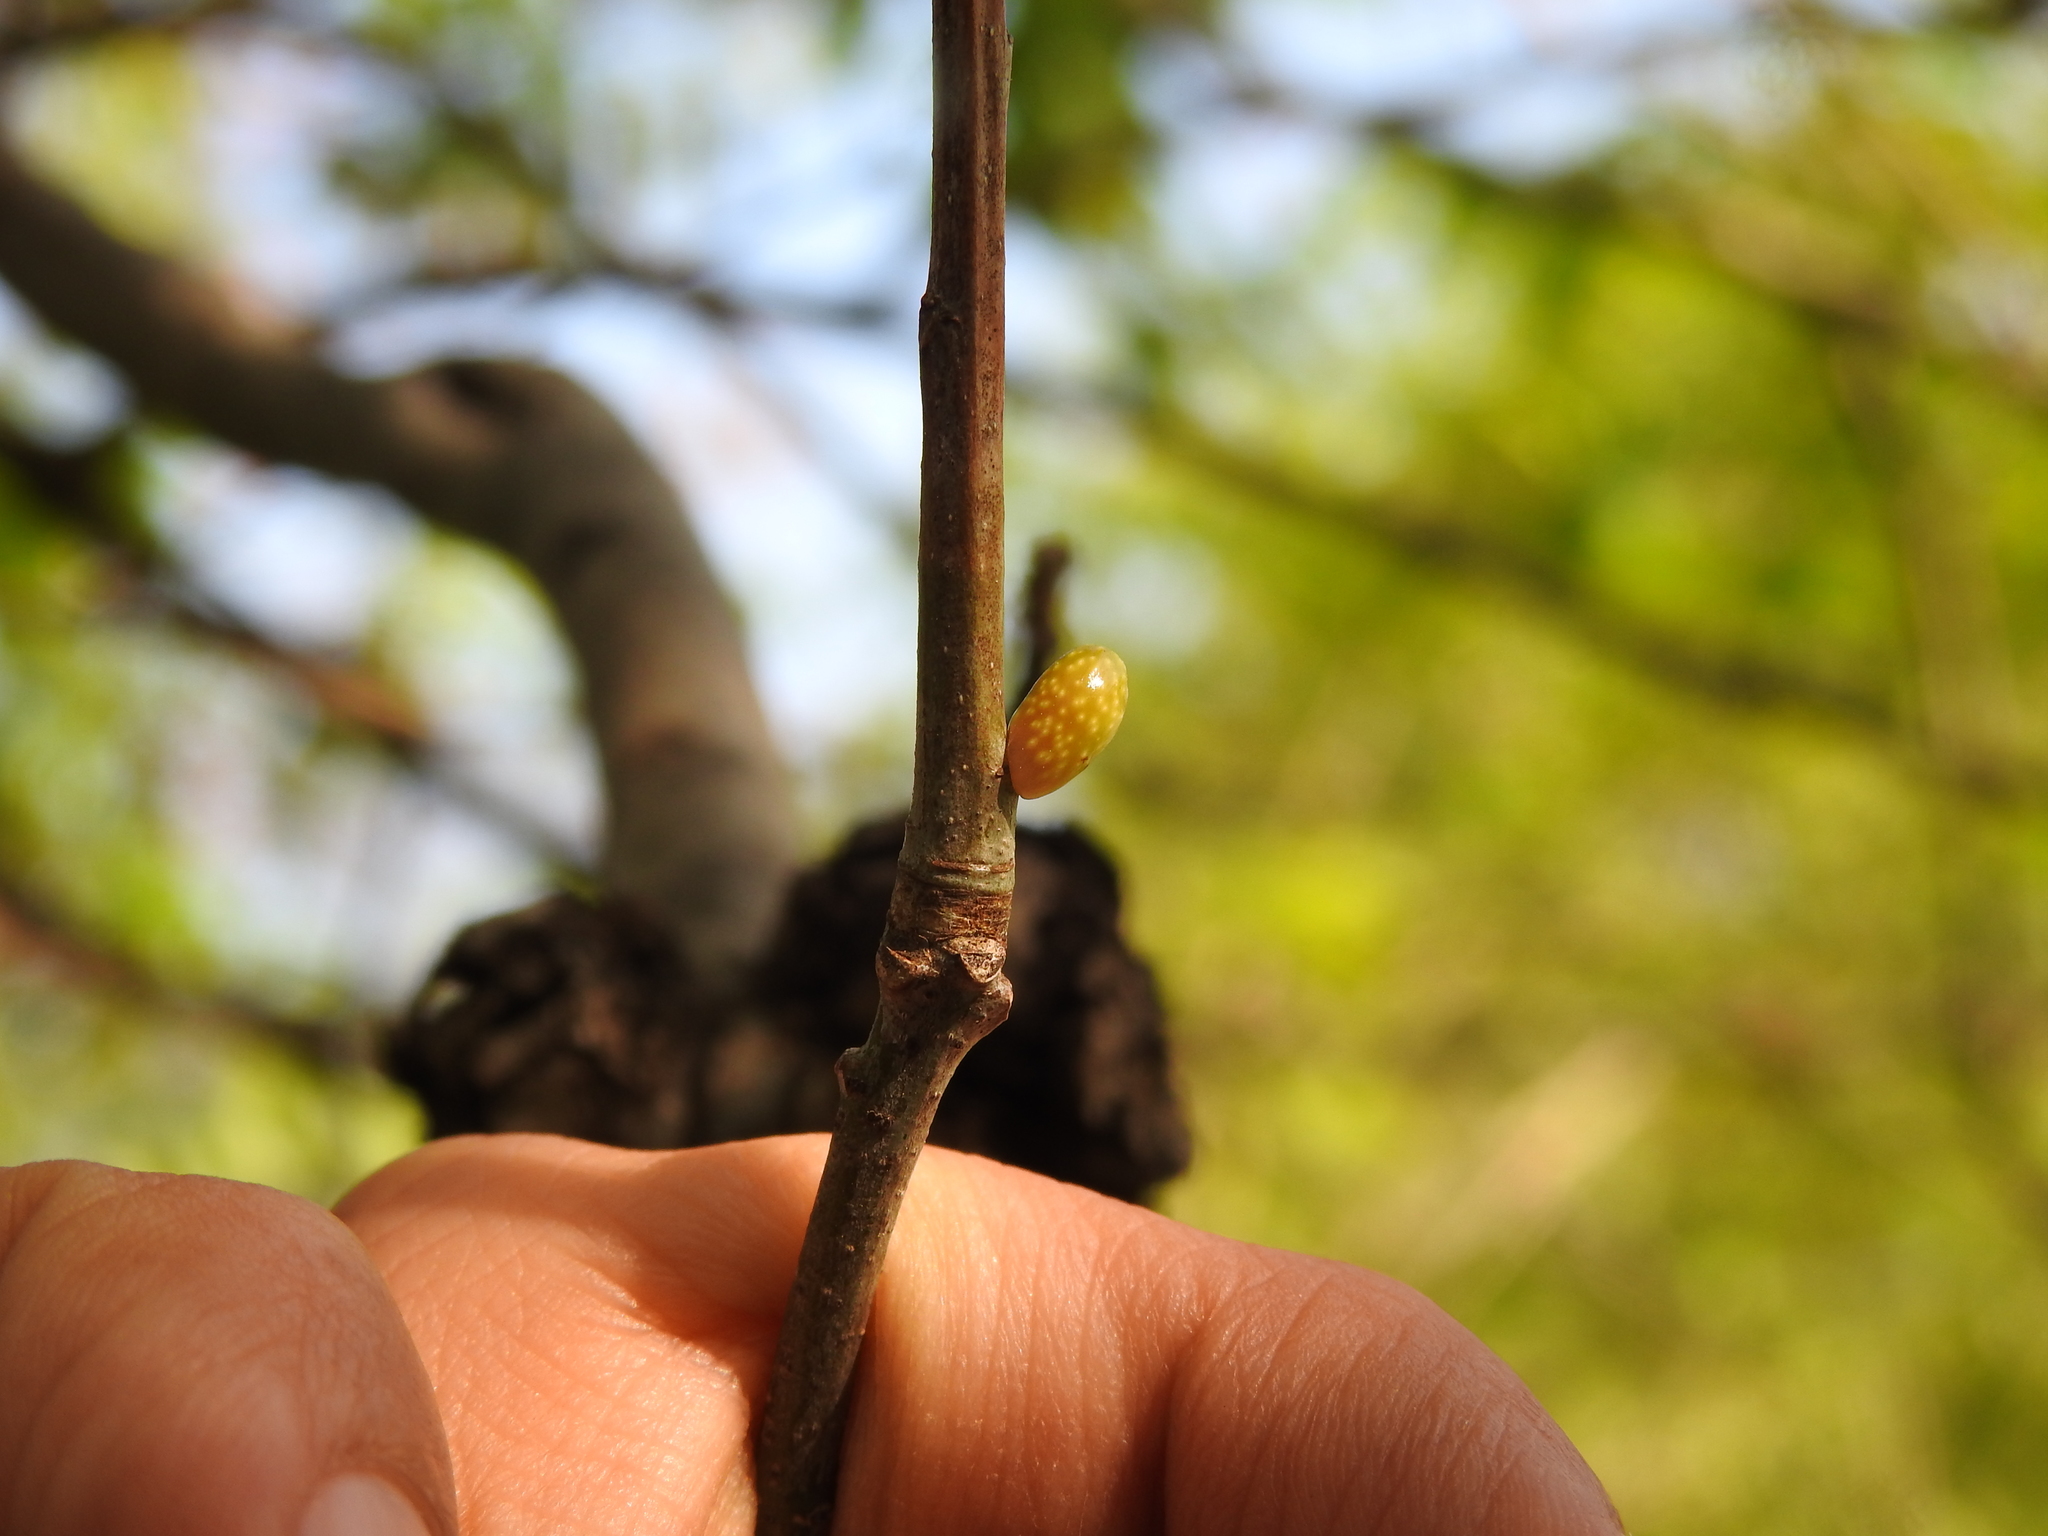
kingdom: Animalia
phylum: Arthropoda
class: Insecta
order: Hymenoptera
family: Cynipidae
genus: Amphibolips
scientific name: Amphibolips
